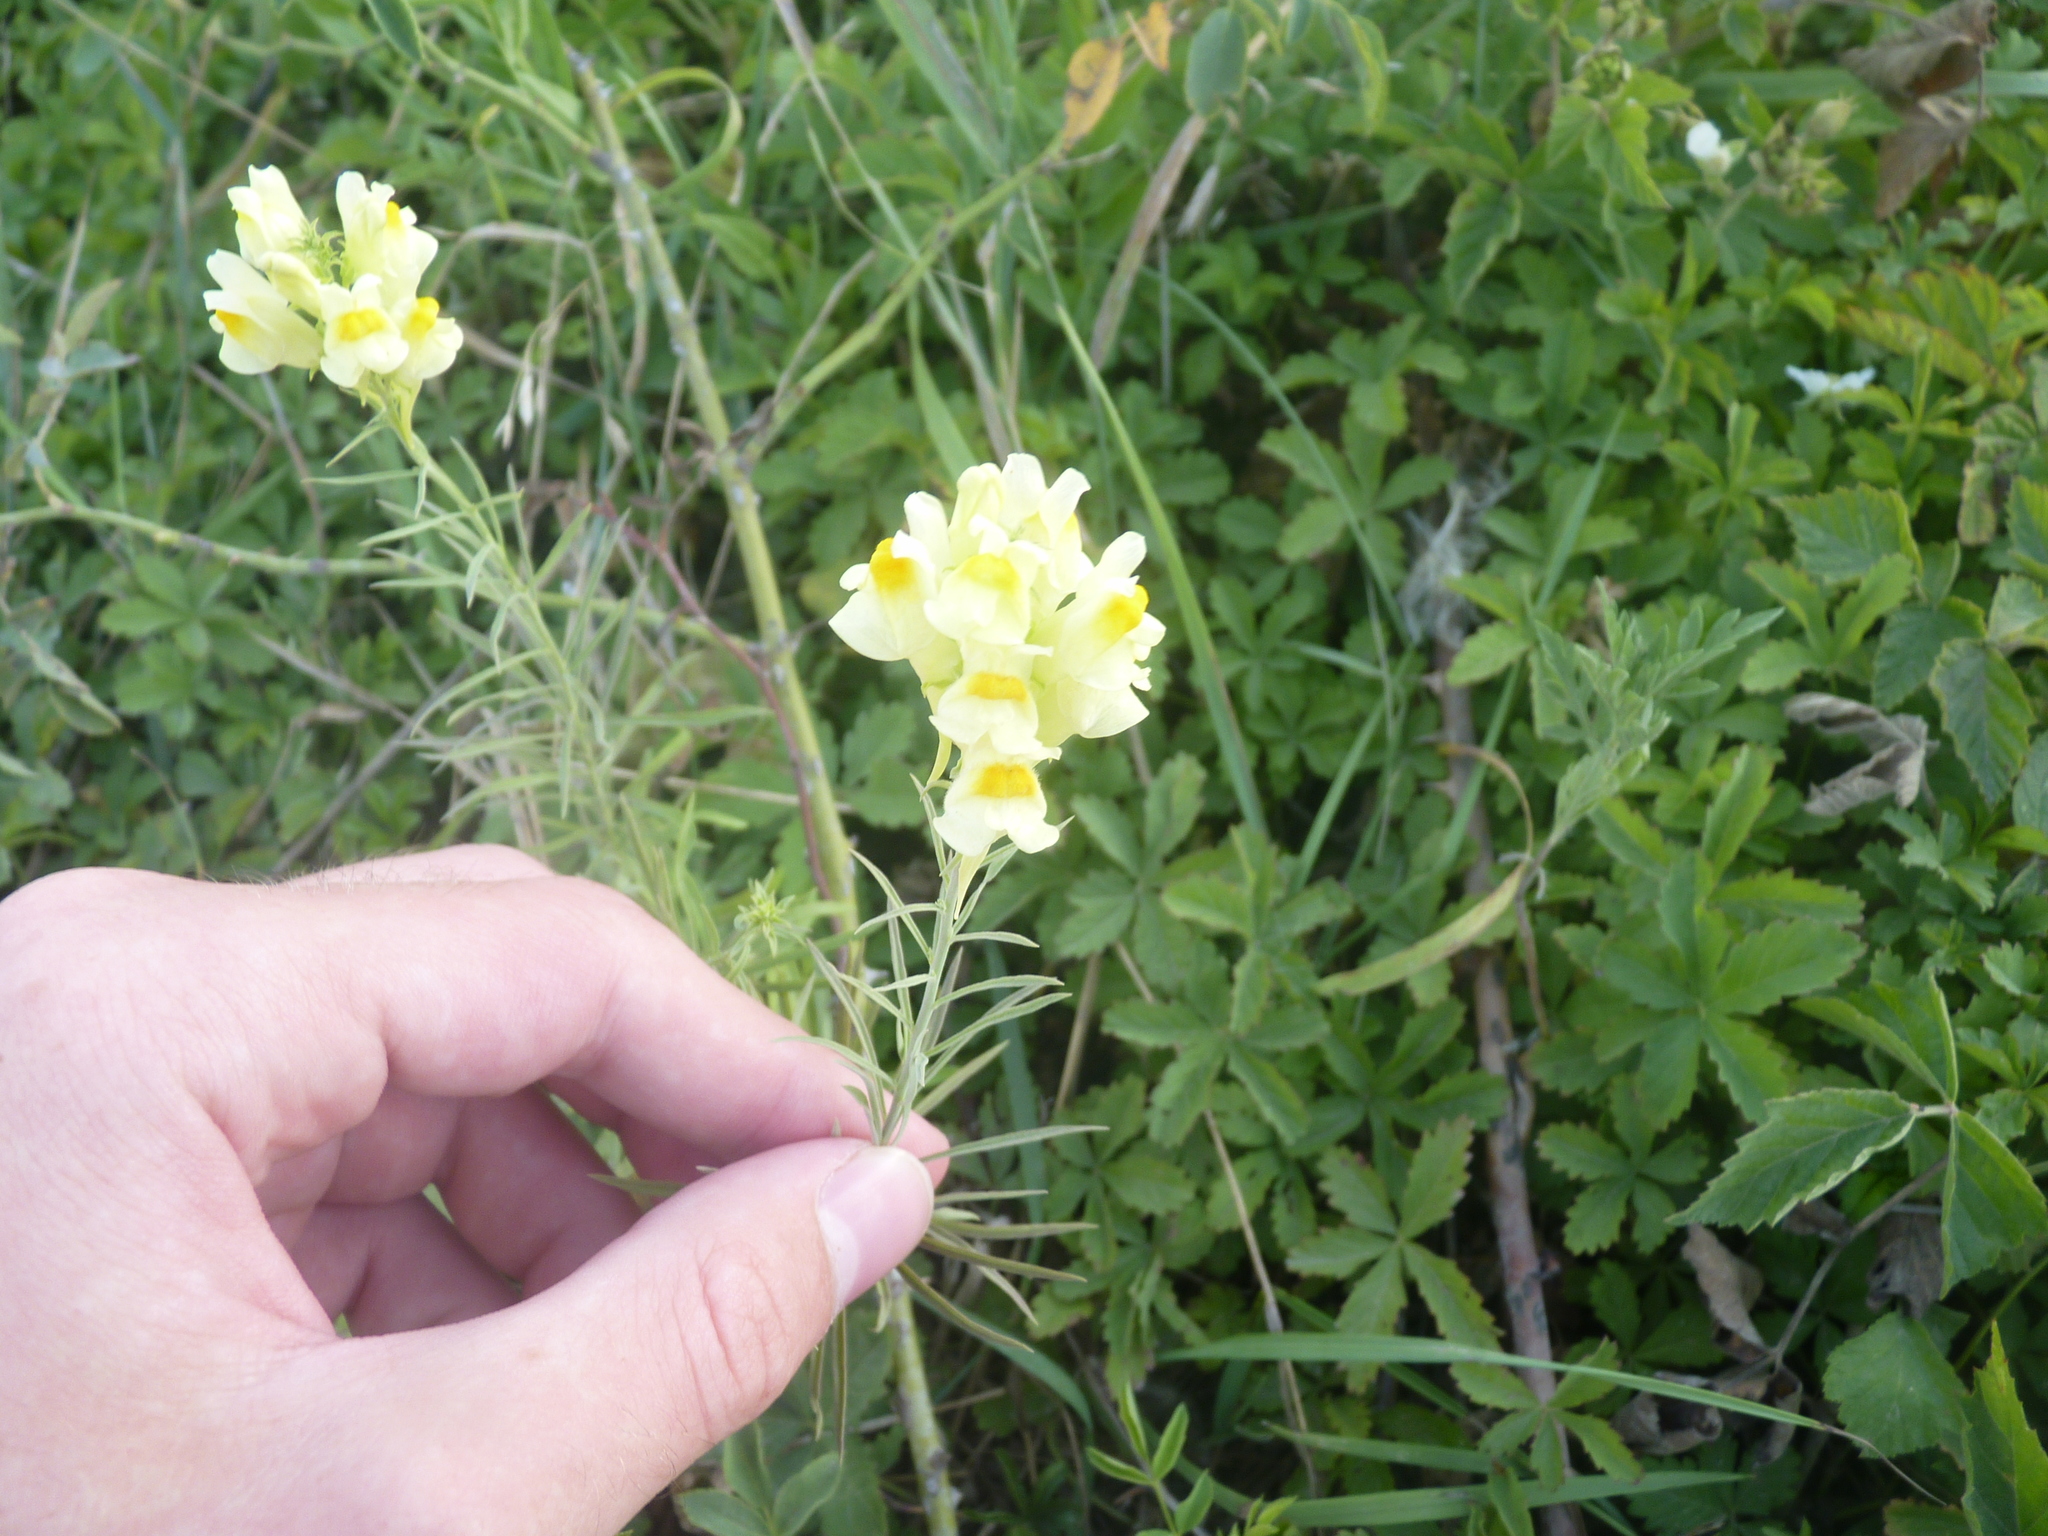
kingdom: Plantae
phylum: Tracheophyta
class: Magnoliopsida
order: Lamiales
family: Plantaginaceae
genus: Linaria
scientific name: Linaria vulgaris
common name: Butter and eggs
